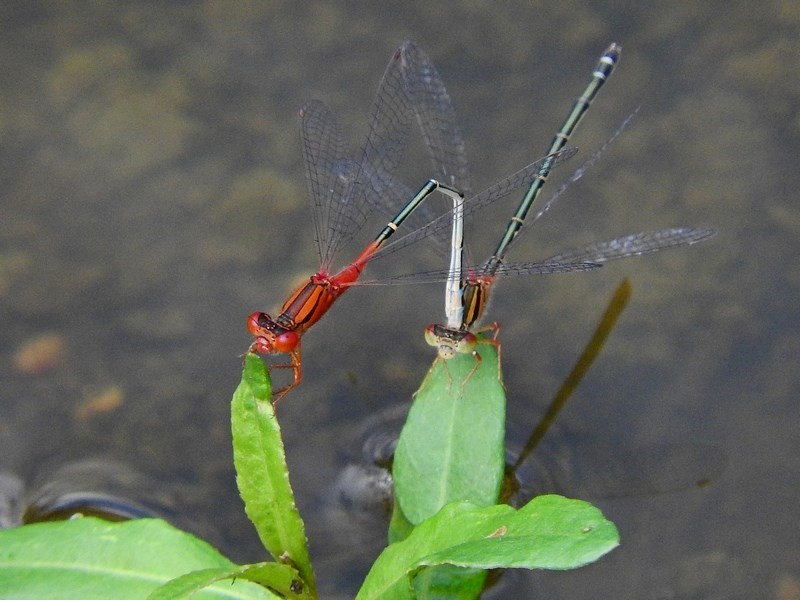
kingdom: Animalia
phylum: Arthropoda
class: Insecta
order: Odonata
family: Coenagrionidae
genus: Xanthagrion
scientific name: Xanthagrion erythroneurum
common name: Red and blue damsel
